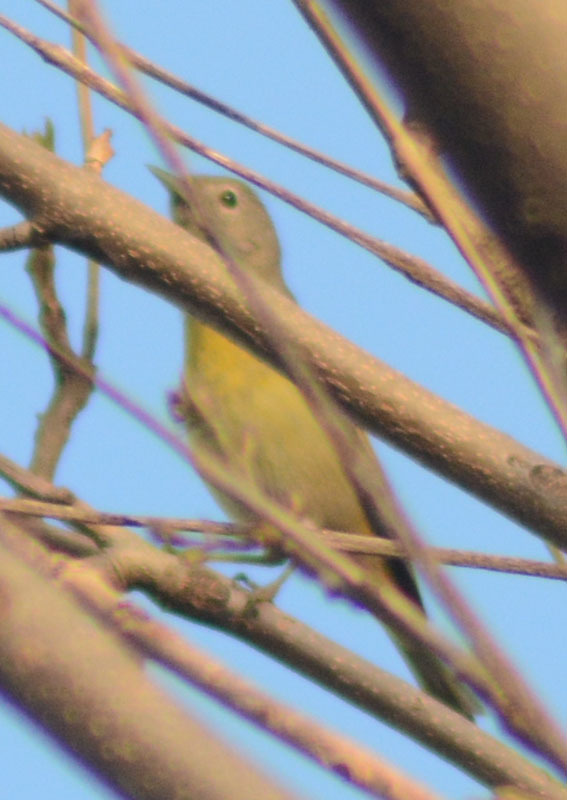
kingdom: Animalia
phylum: Chordata
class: Aves
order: Passeriformes
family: Parulidae
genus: Leiothlypis
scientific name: Leiothlypis ruficapilla
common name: Nashville warbler
